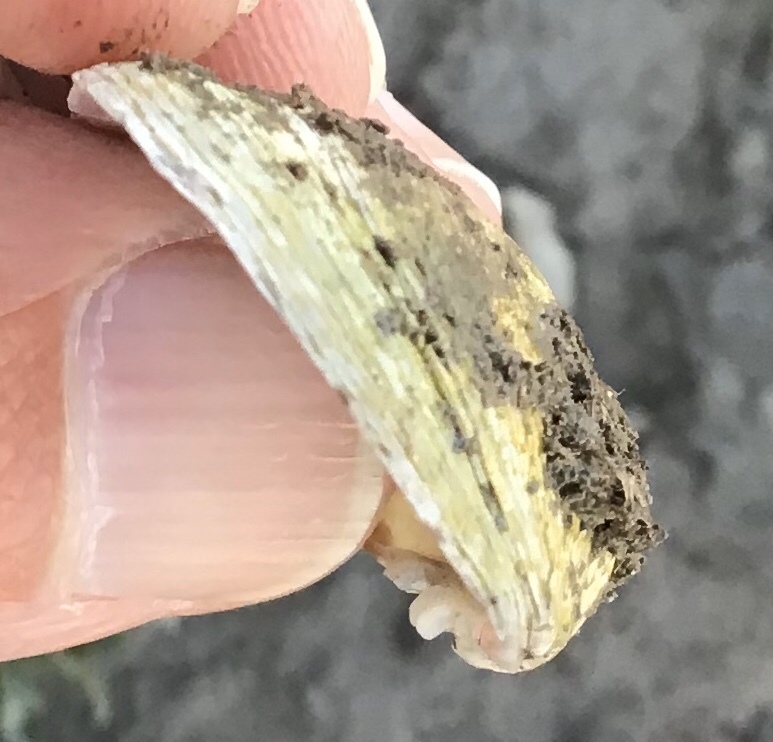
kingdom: Animalia
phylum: Mollusca
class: Bivalvia
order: Venerida
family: Veneridae
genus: Ruditapes
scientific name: Ruditapes philippinarum
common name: Manila clam
